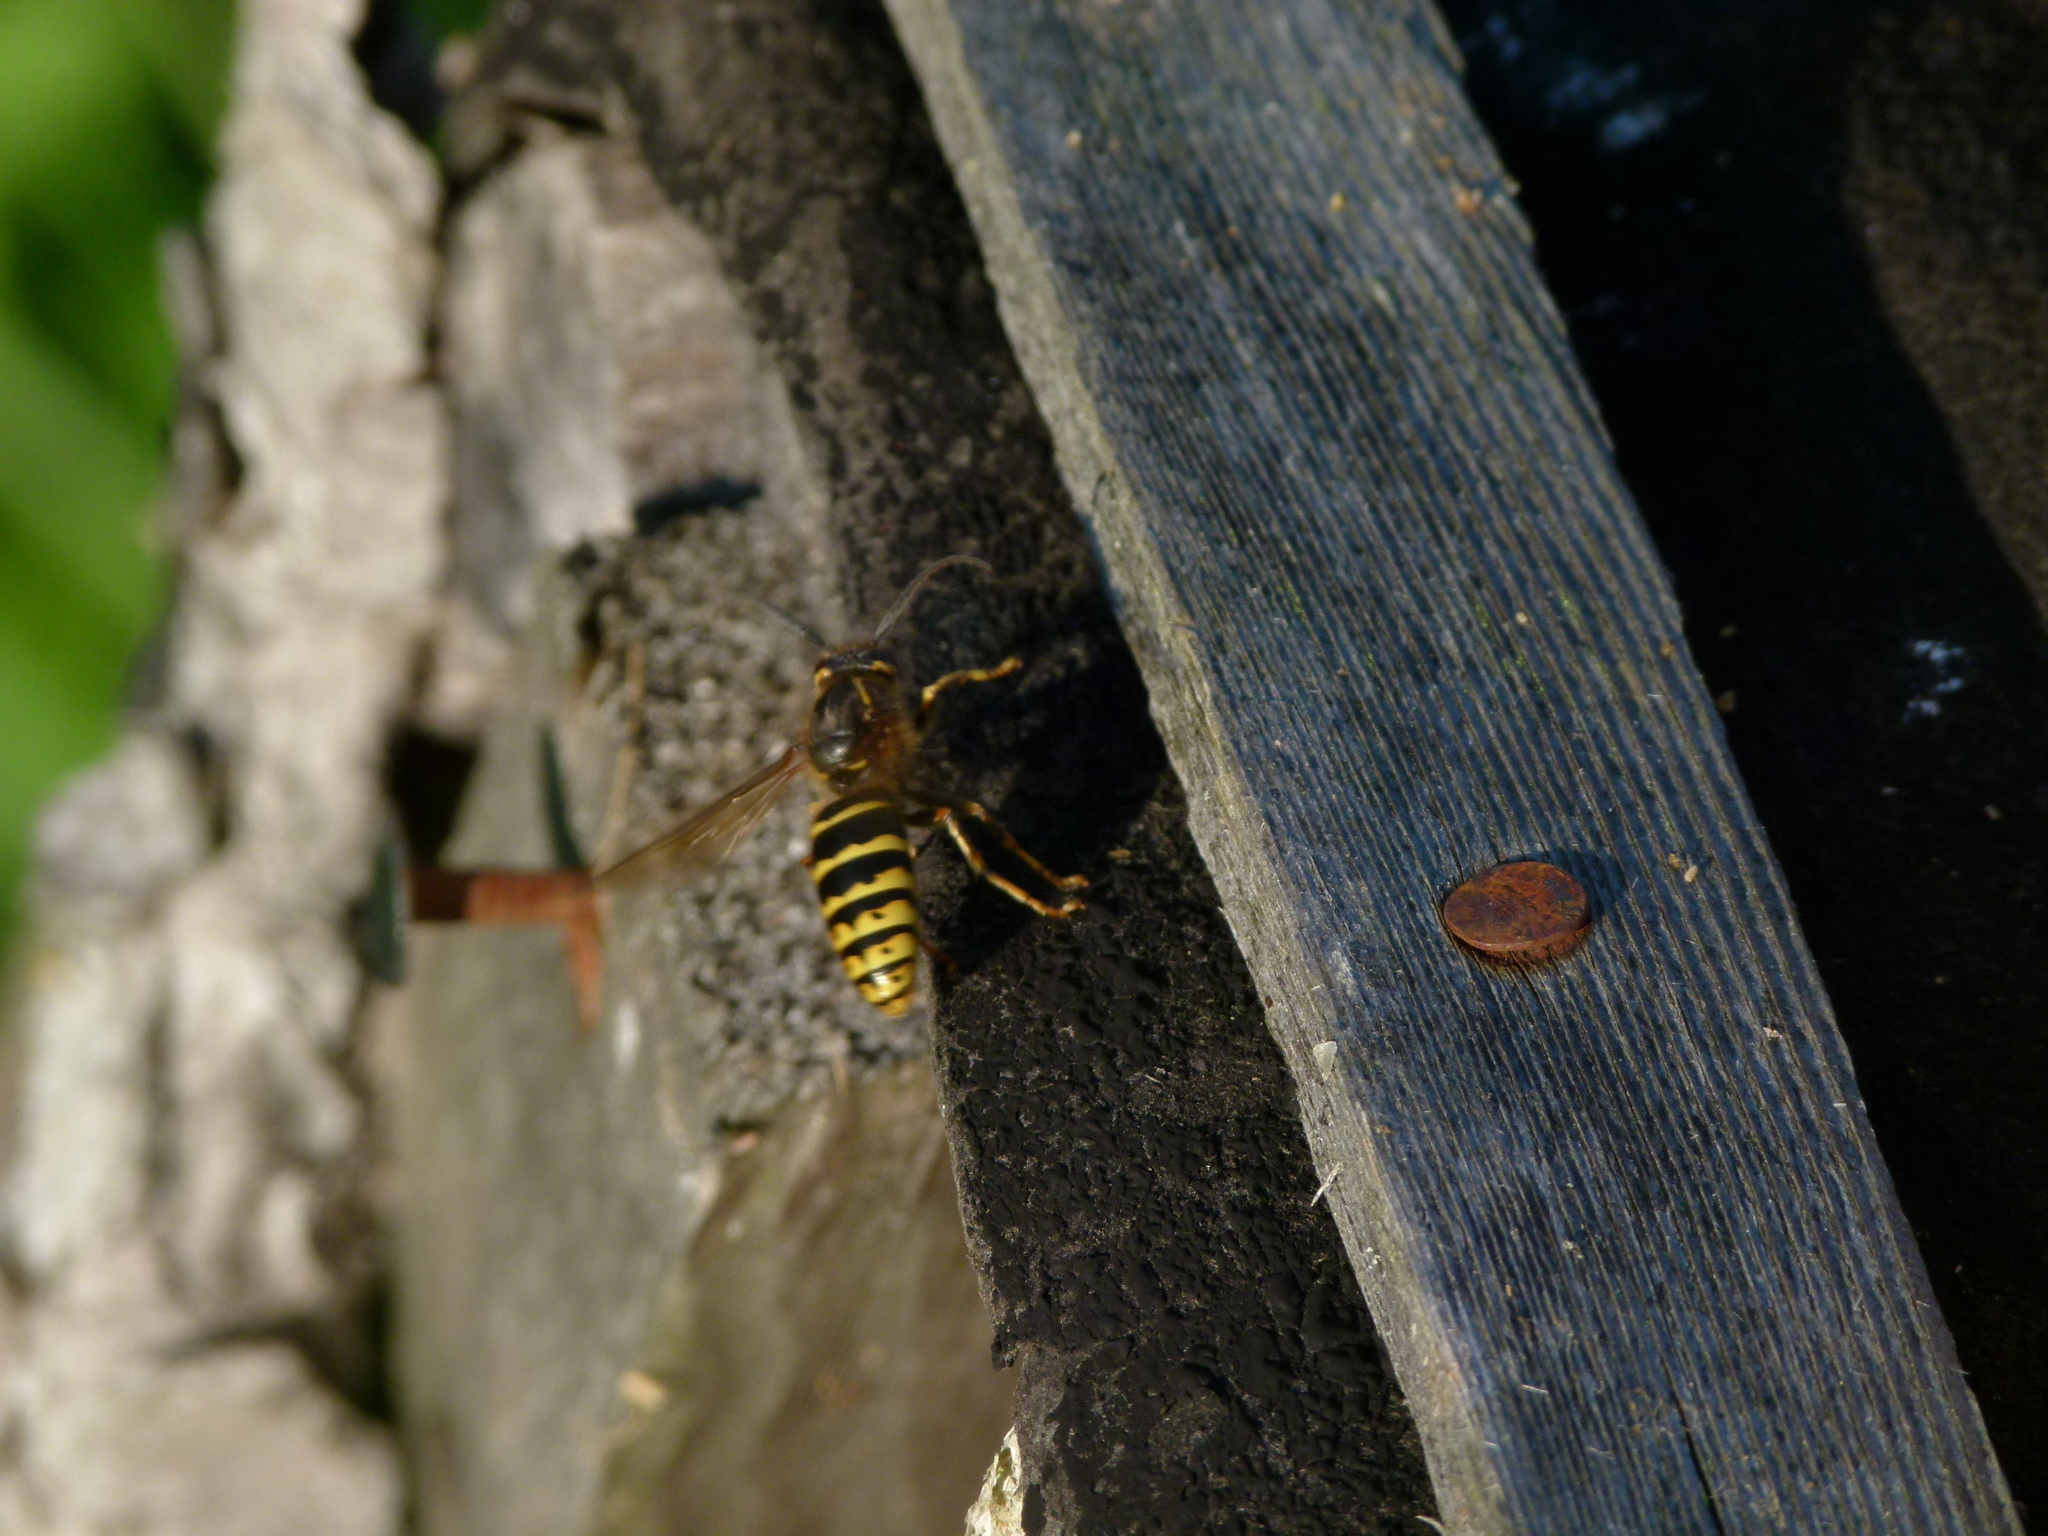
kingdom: Animalia
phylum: Arthropoda
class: Insecta
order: Hymenoptera
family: Vespidae
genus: Dolichovespula
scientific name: Dolichovespula media
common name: Median wasp
